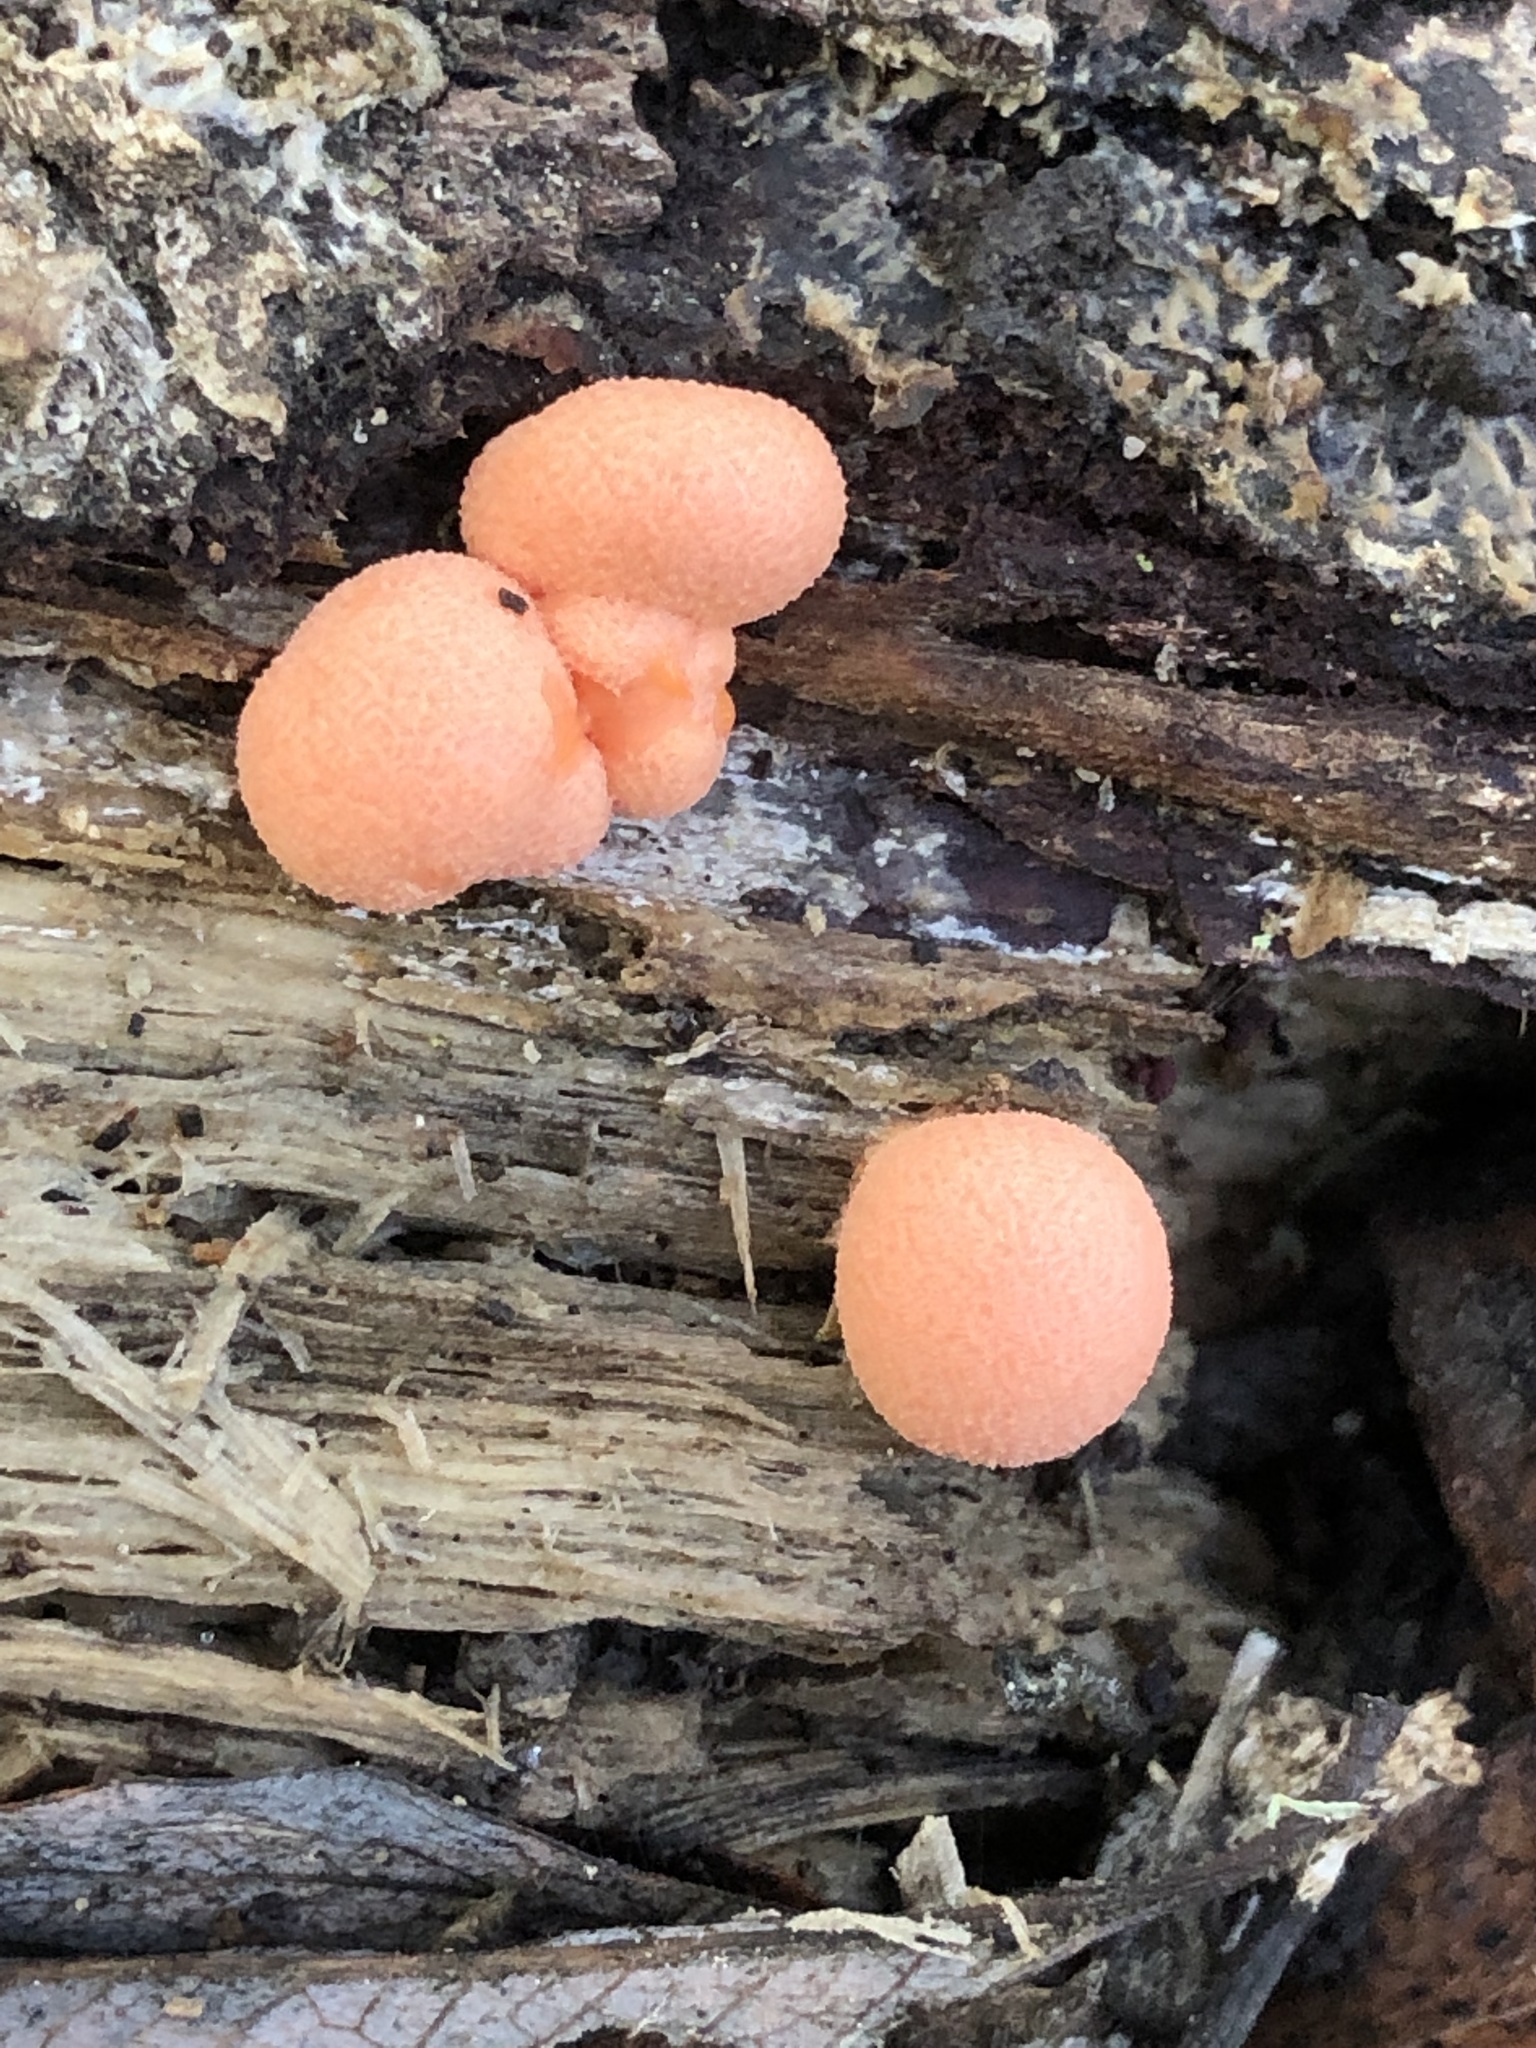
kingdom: Protozoa
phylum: Mycetozoa
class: Myxomycetes
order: Cribrariales
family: Tubiferaceae
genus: Lycogala
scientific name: Lycogala epidendrum
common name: Wolf's milk
